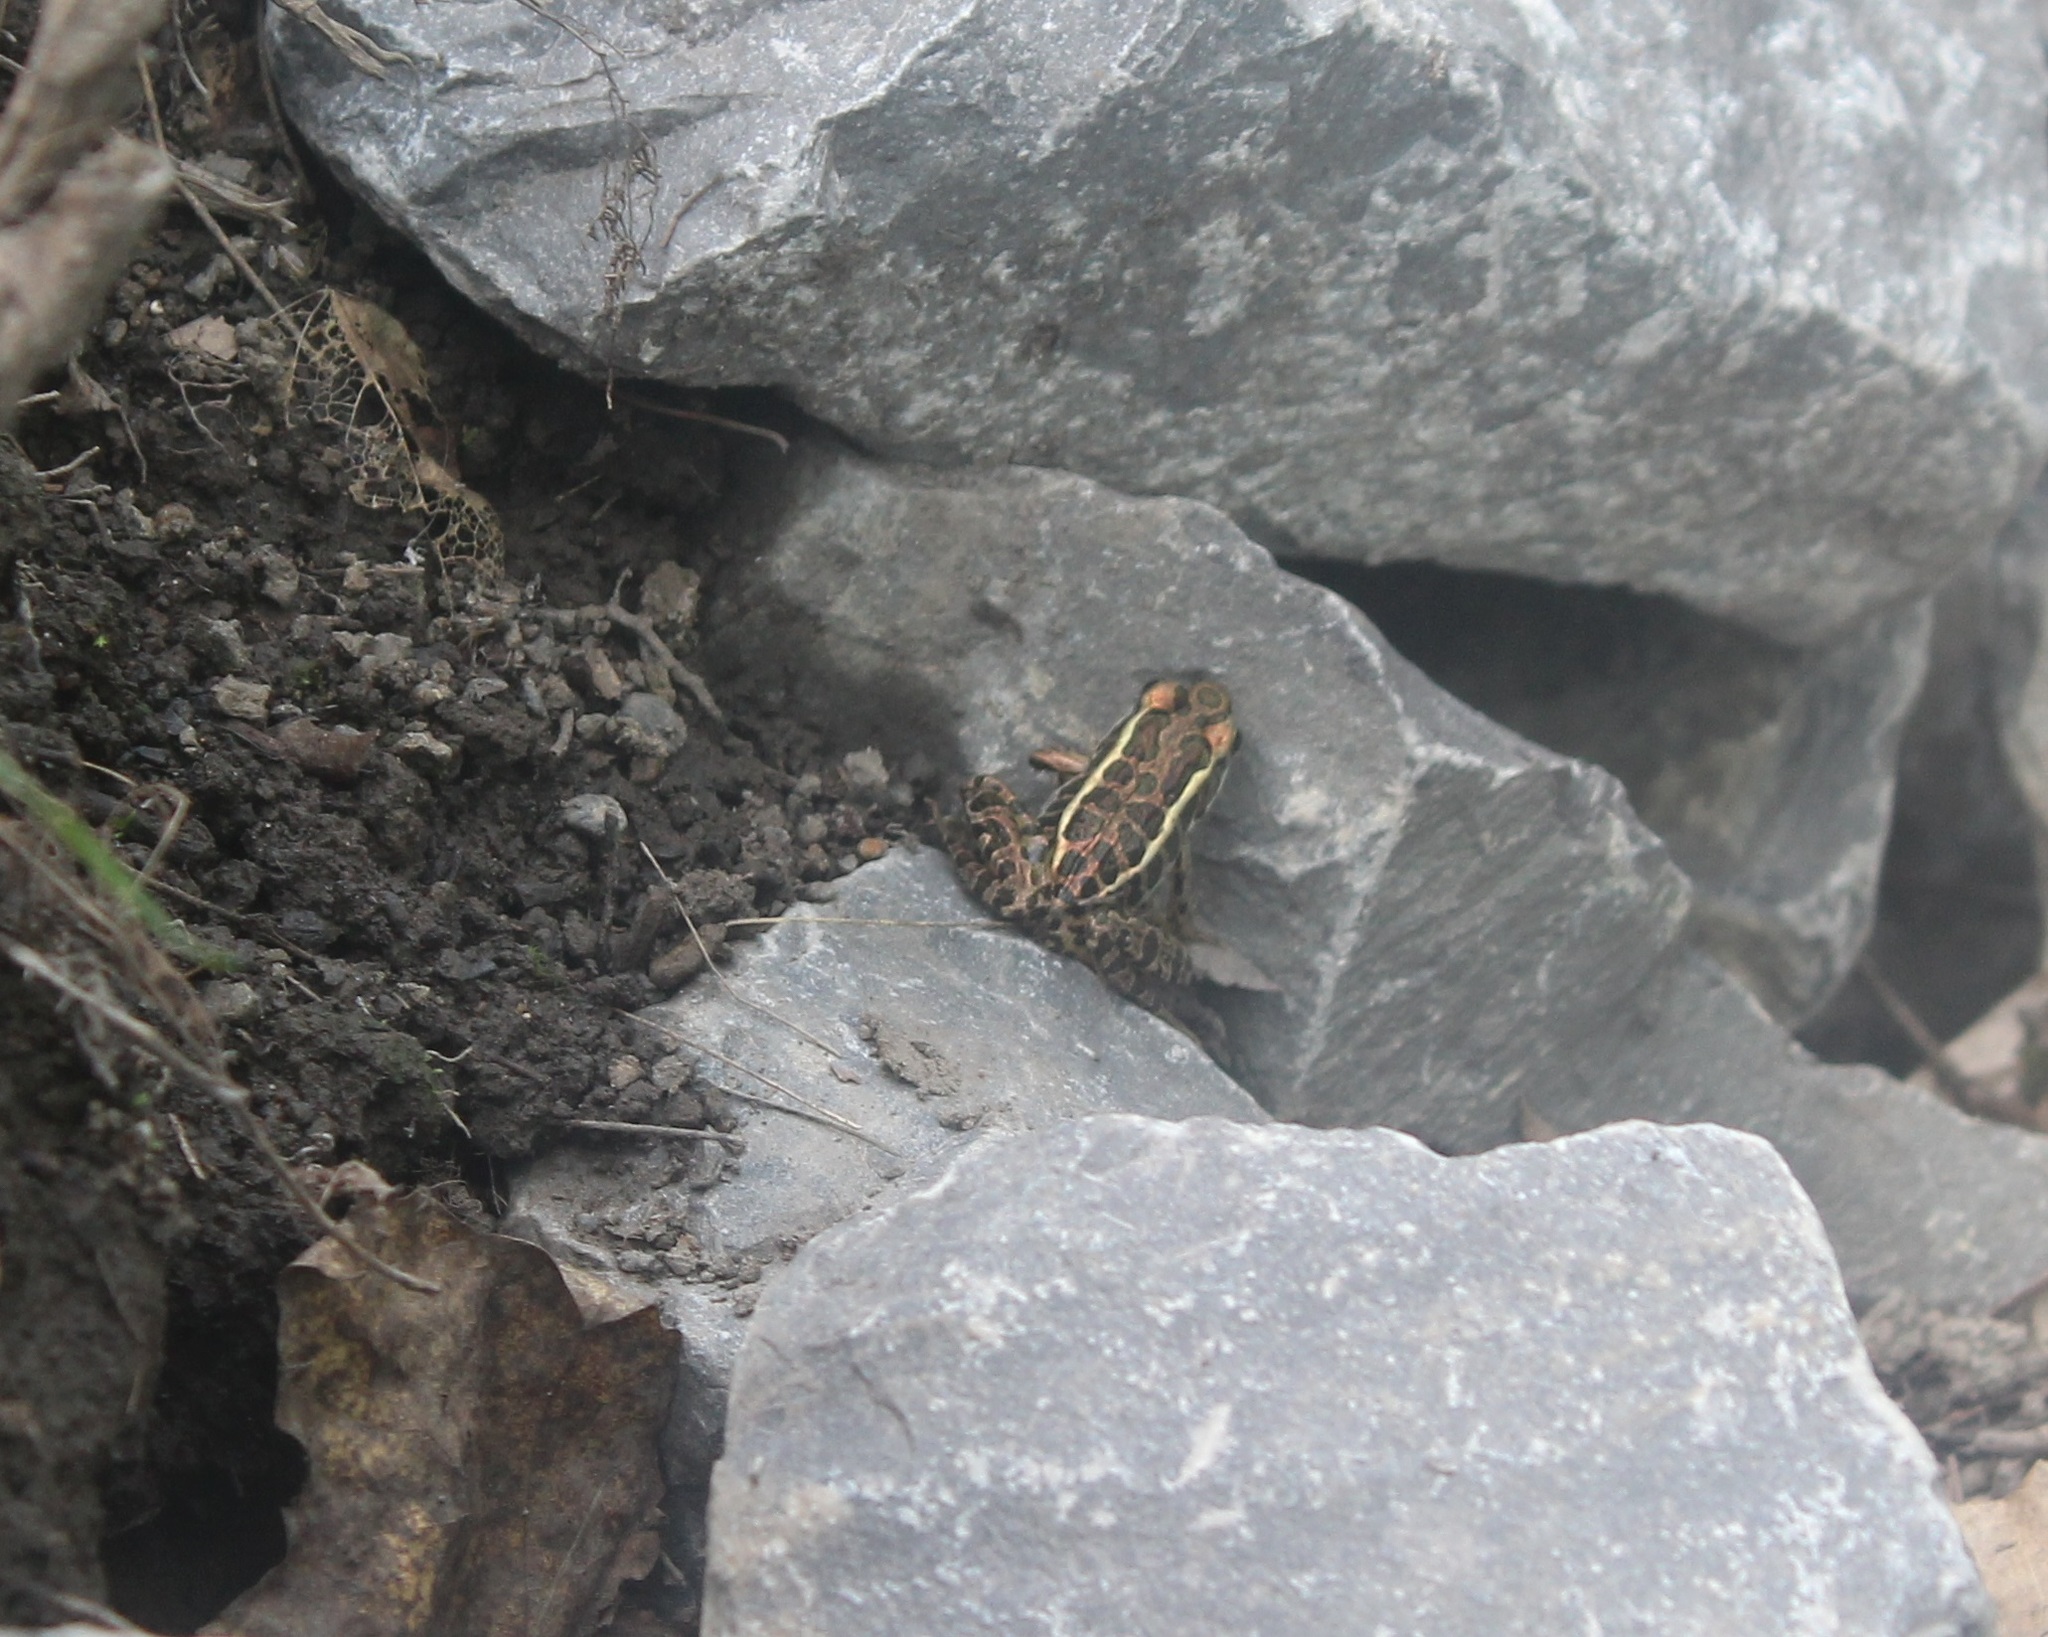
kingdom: Animalia
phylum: Chordata
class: Amphibia
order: Anura
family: Ranidae
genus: Lithobates
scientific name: Lithobates palustris
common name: Pickerel frog
